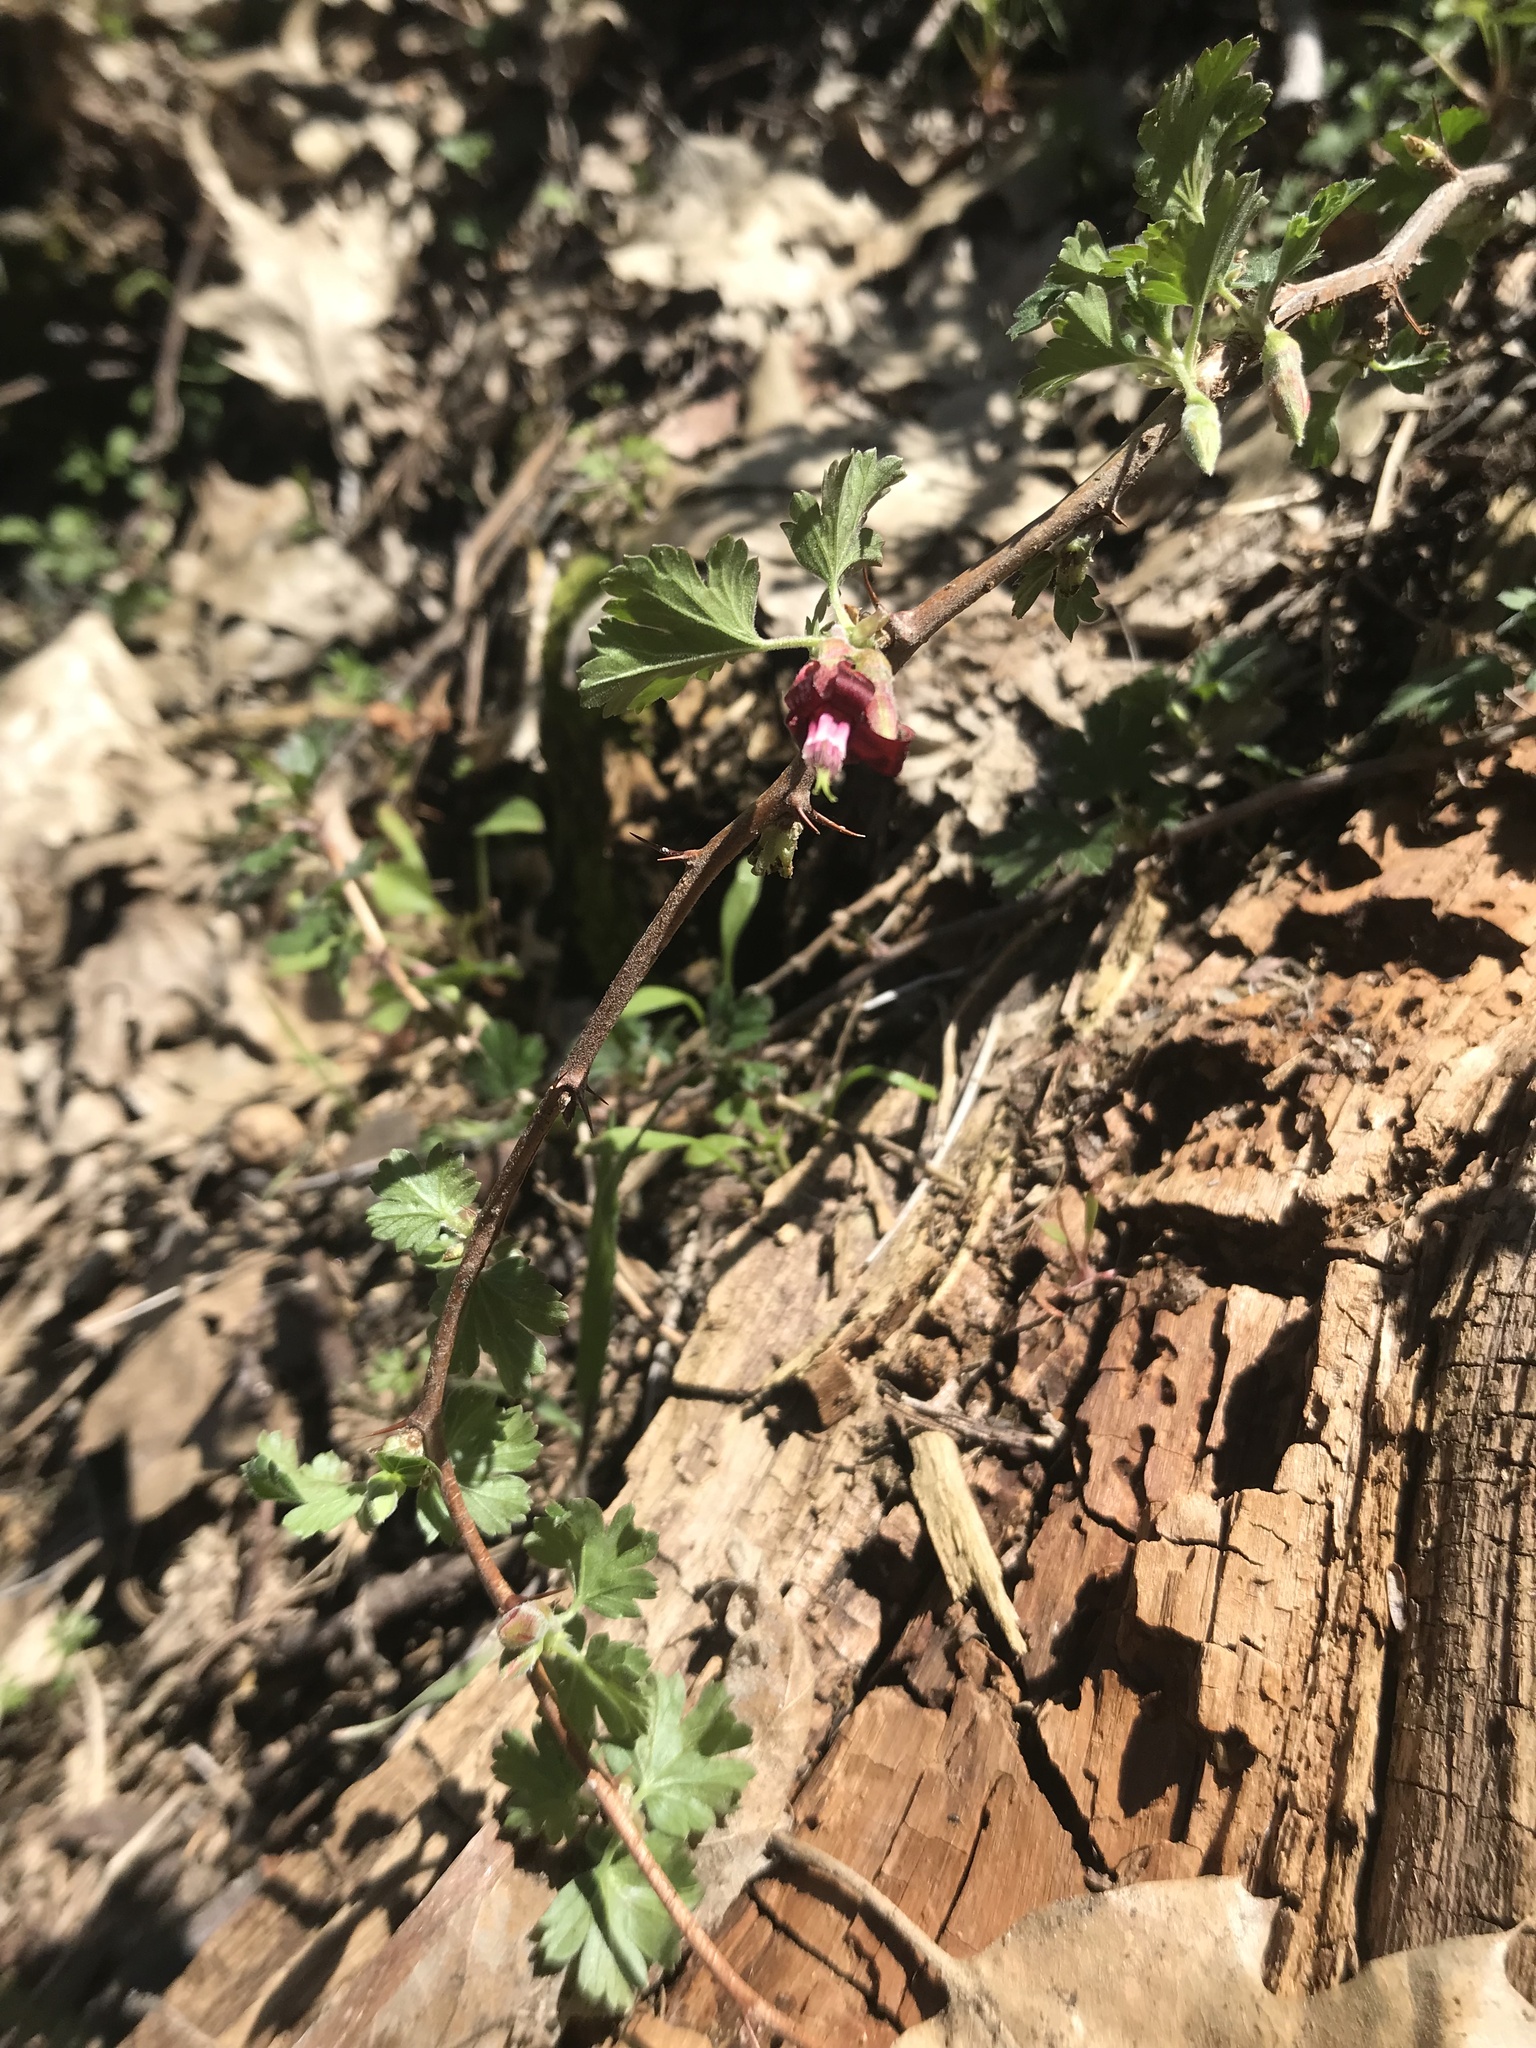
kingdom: Plantae
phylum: Tracheophyta
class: Magnoliopsida
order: Saxifragales
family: Grossulariaceae
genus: Ribes
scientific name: Ribes roezlii
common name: Sierra gooseberry
